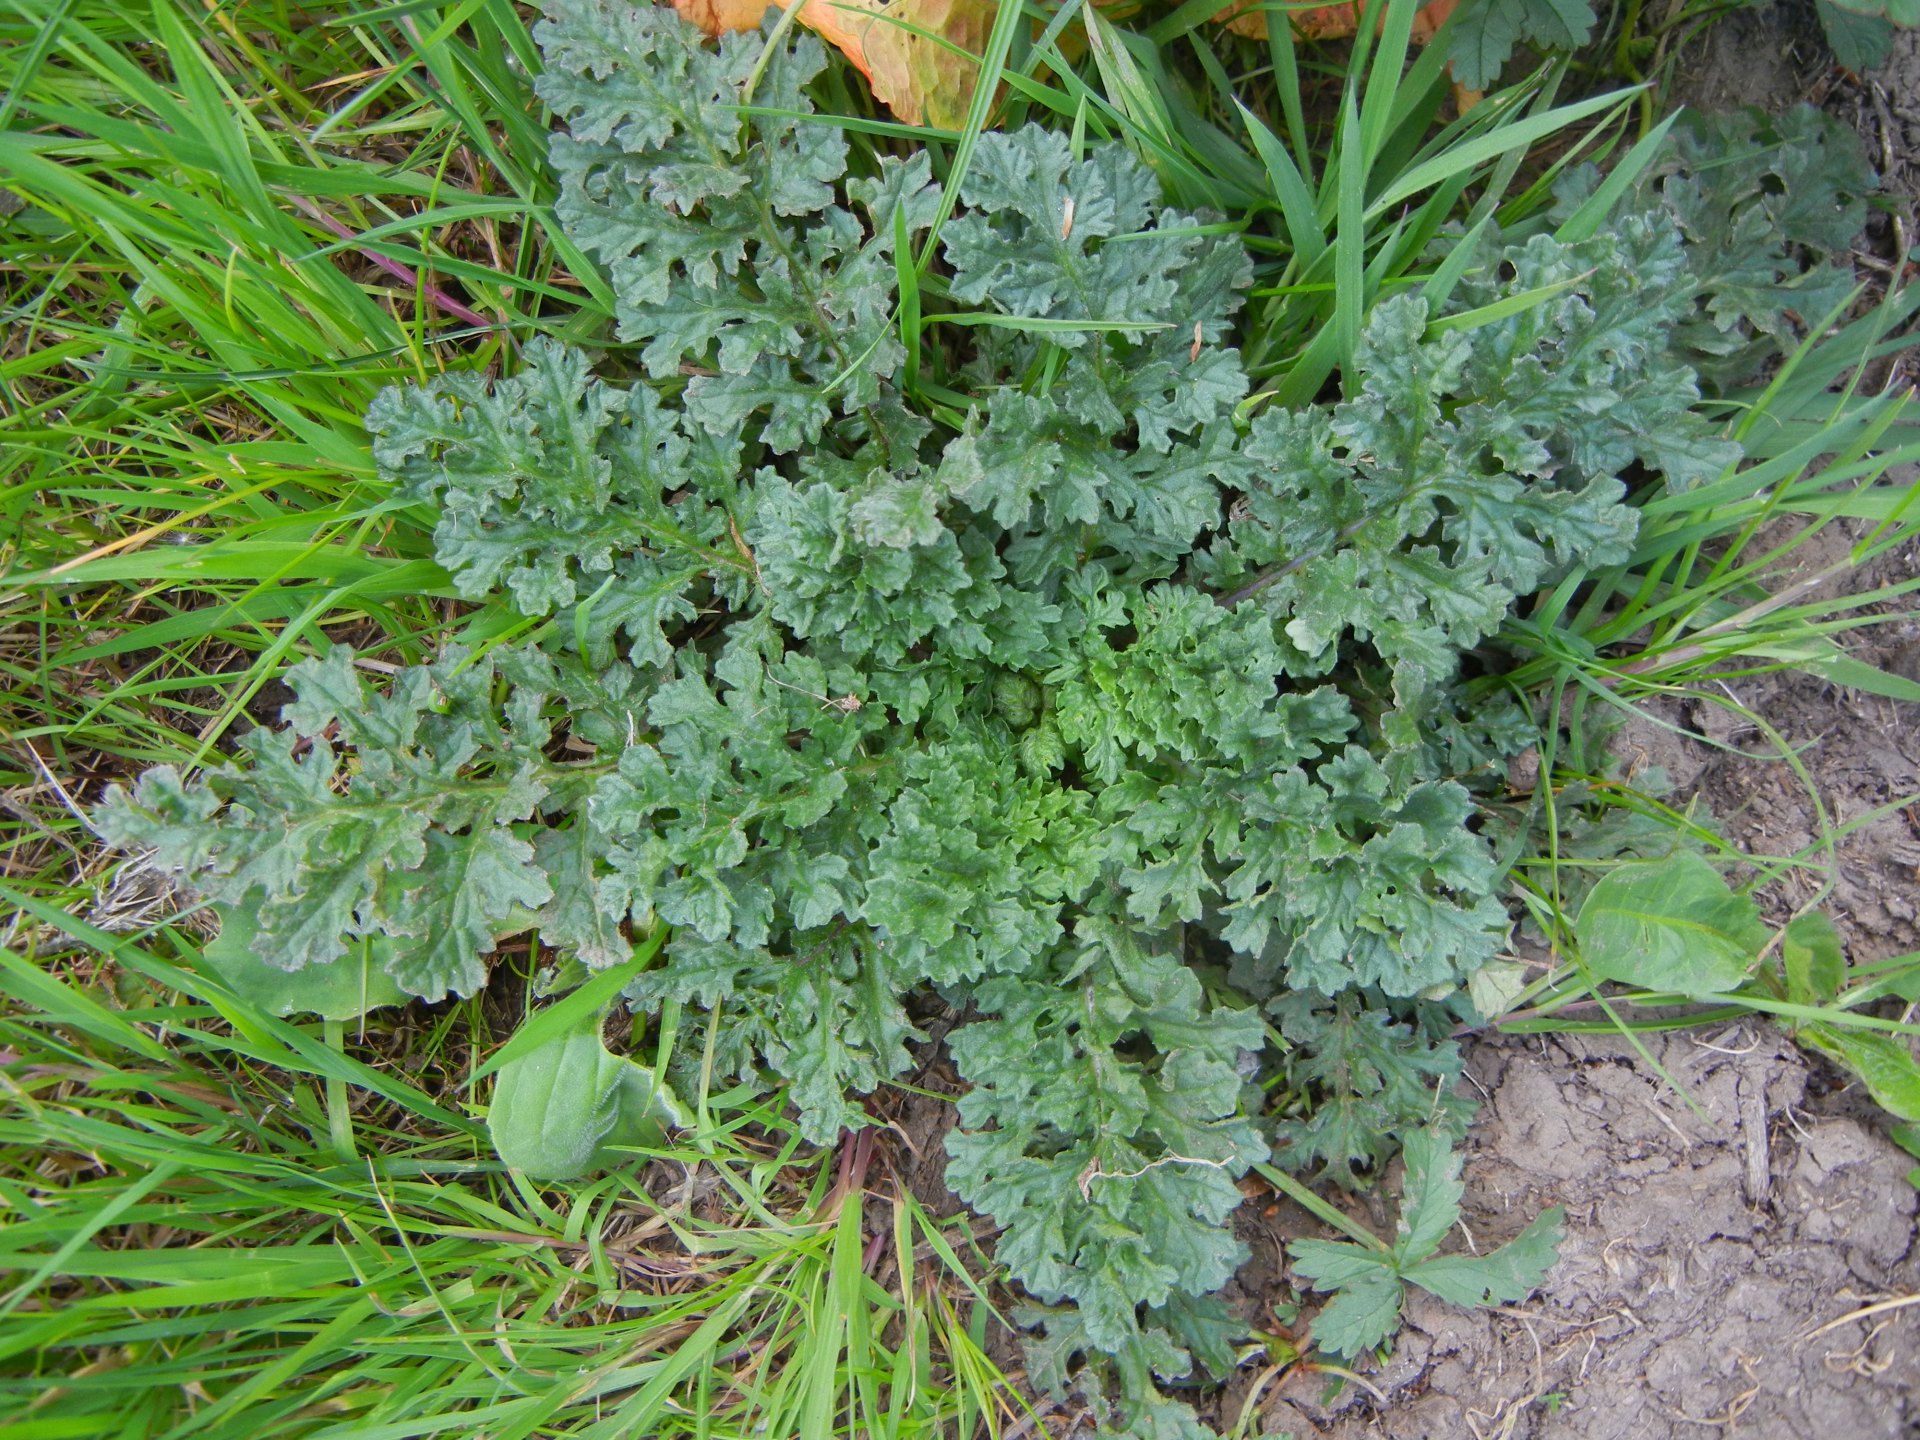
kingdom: Plantae
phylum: Tracheophyta
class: Magnoliopsida
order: Asterales
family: Asteraceae
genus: Jacobaea
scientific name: Jacobaea vulgaris
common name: Stinking willie
